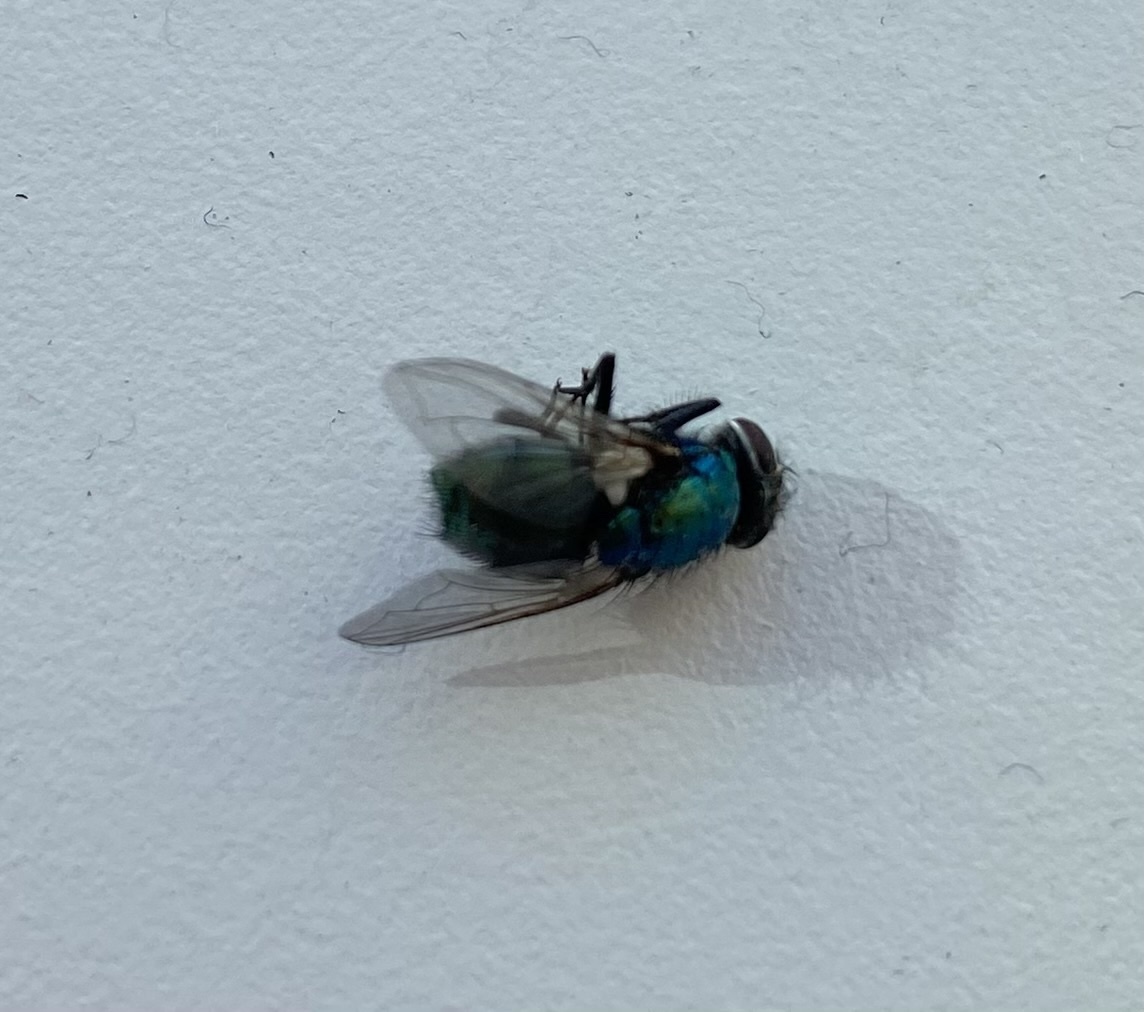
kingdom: Animalia
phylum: Arthropoda
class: Insecta
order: Diptera
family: Calliphoridae
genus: Lucilia
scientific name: Lucilia
